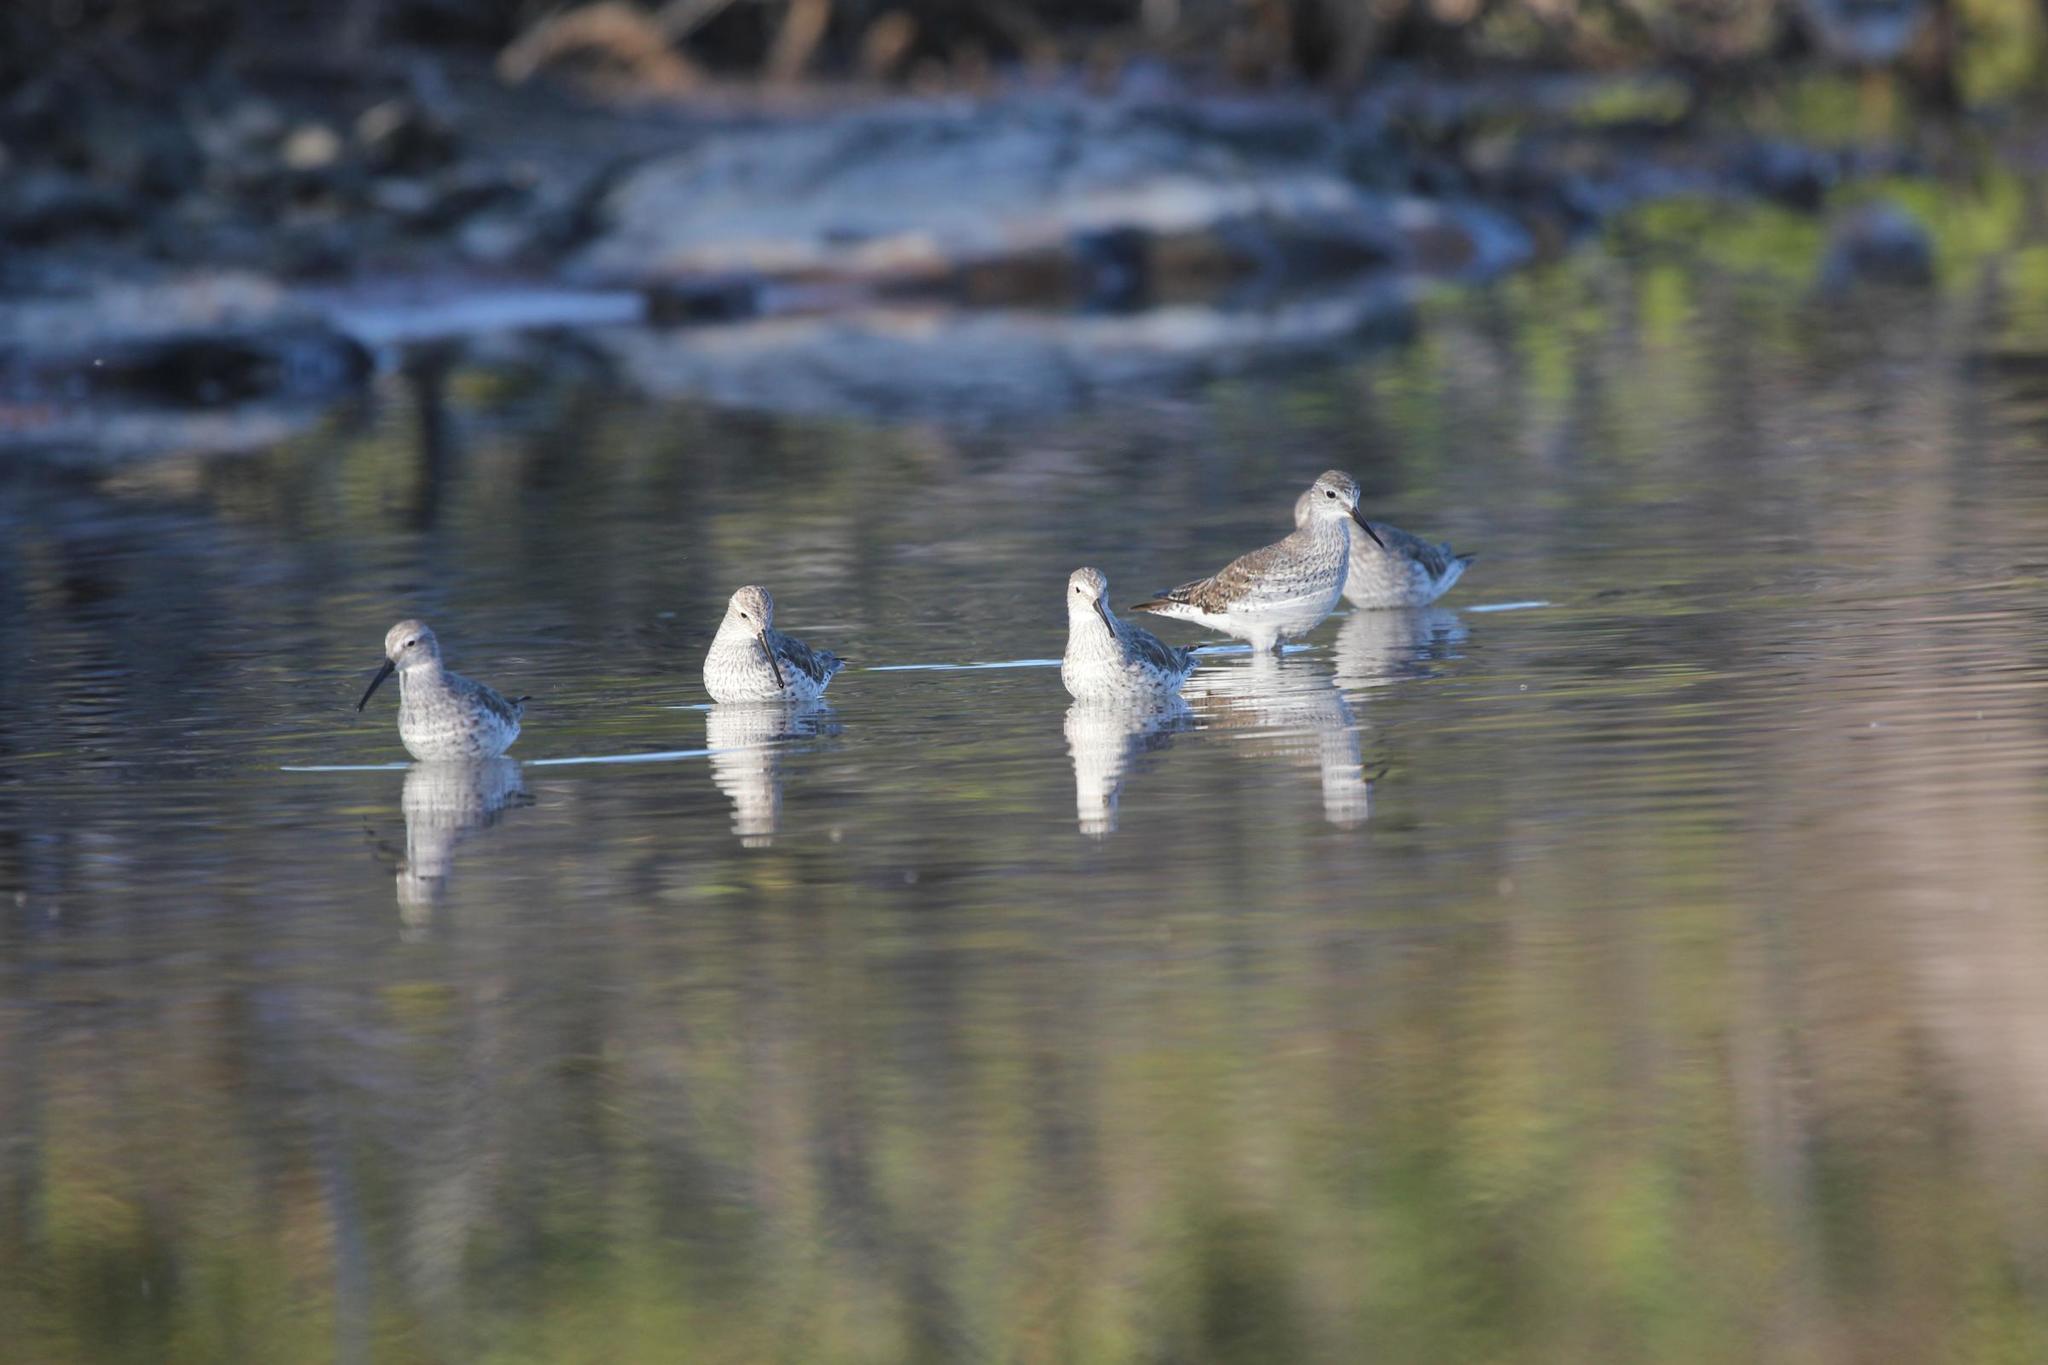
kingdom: Animalia
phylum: Chordata
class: Aves
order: Charadriiformes
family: Scolopacidae
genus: Calidris
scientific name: Calidris himantopus
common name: Stilt sandpiper
